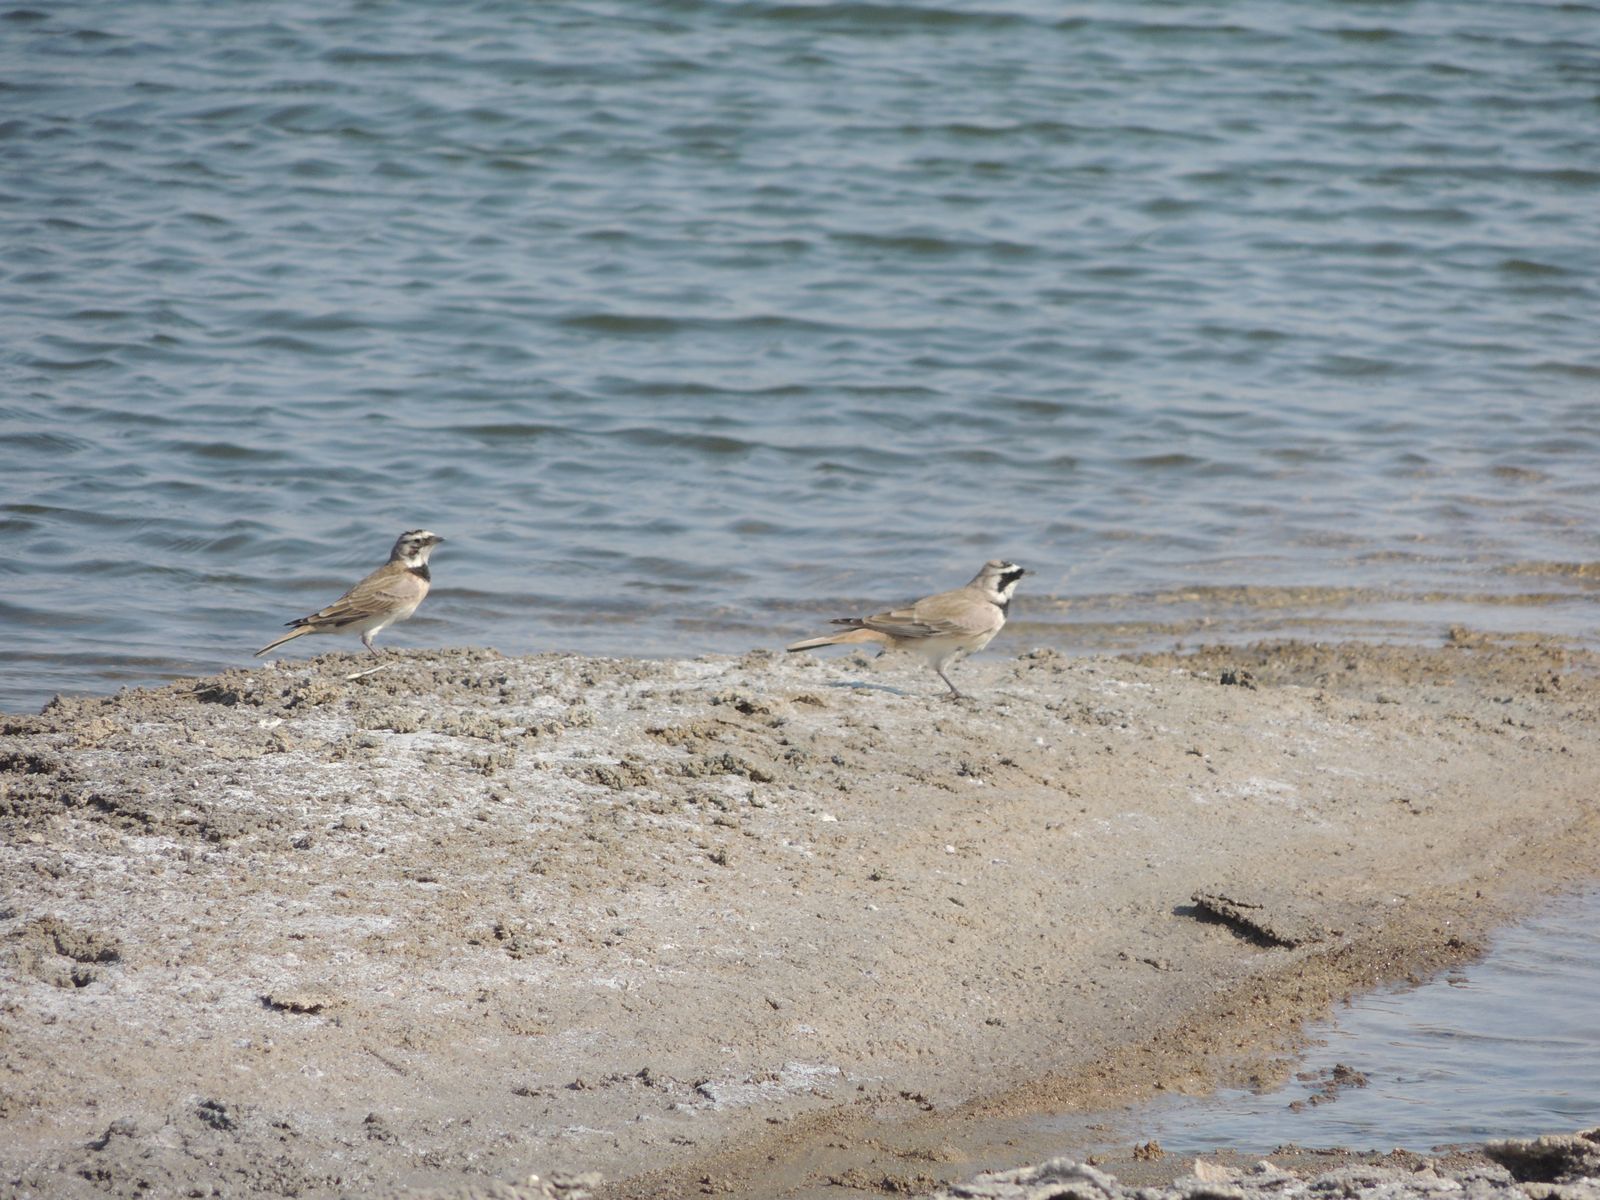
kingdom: Animalia
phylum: Chordata
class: Aves
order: Passeriformes
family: Alaudidae
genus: Eremophila
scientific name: Eremophila alpestris
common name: Horned lark
